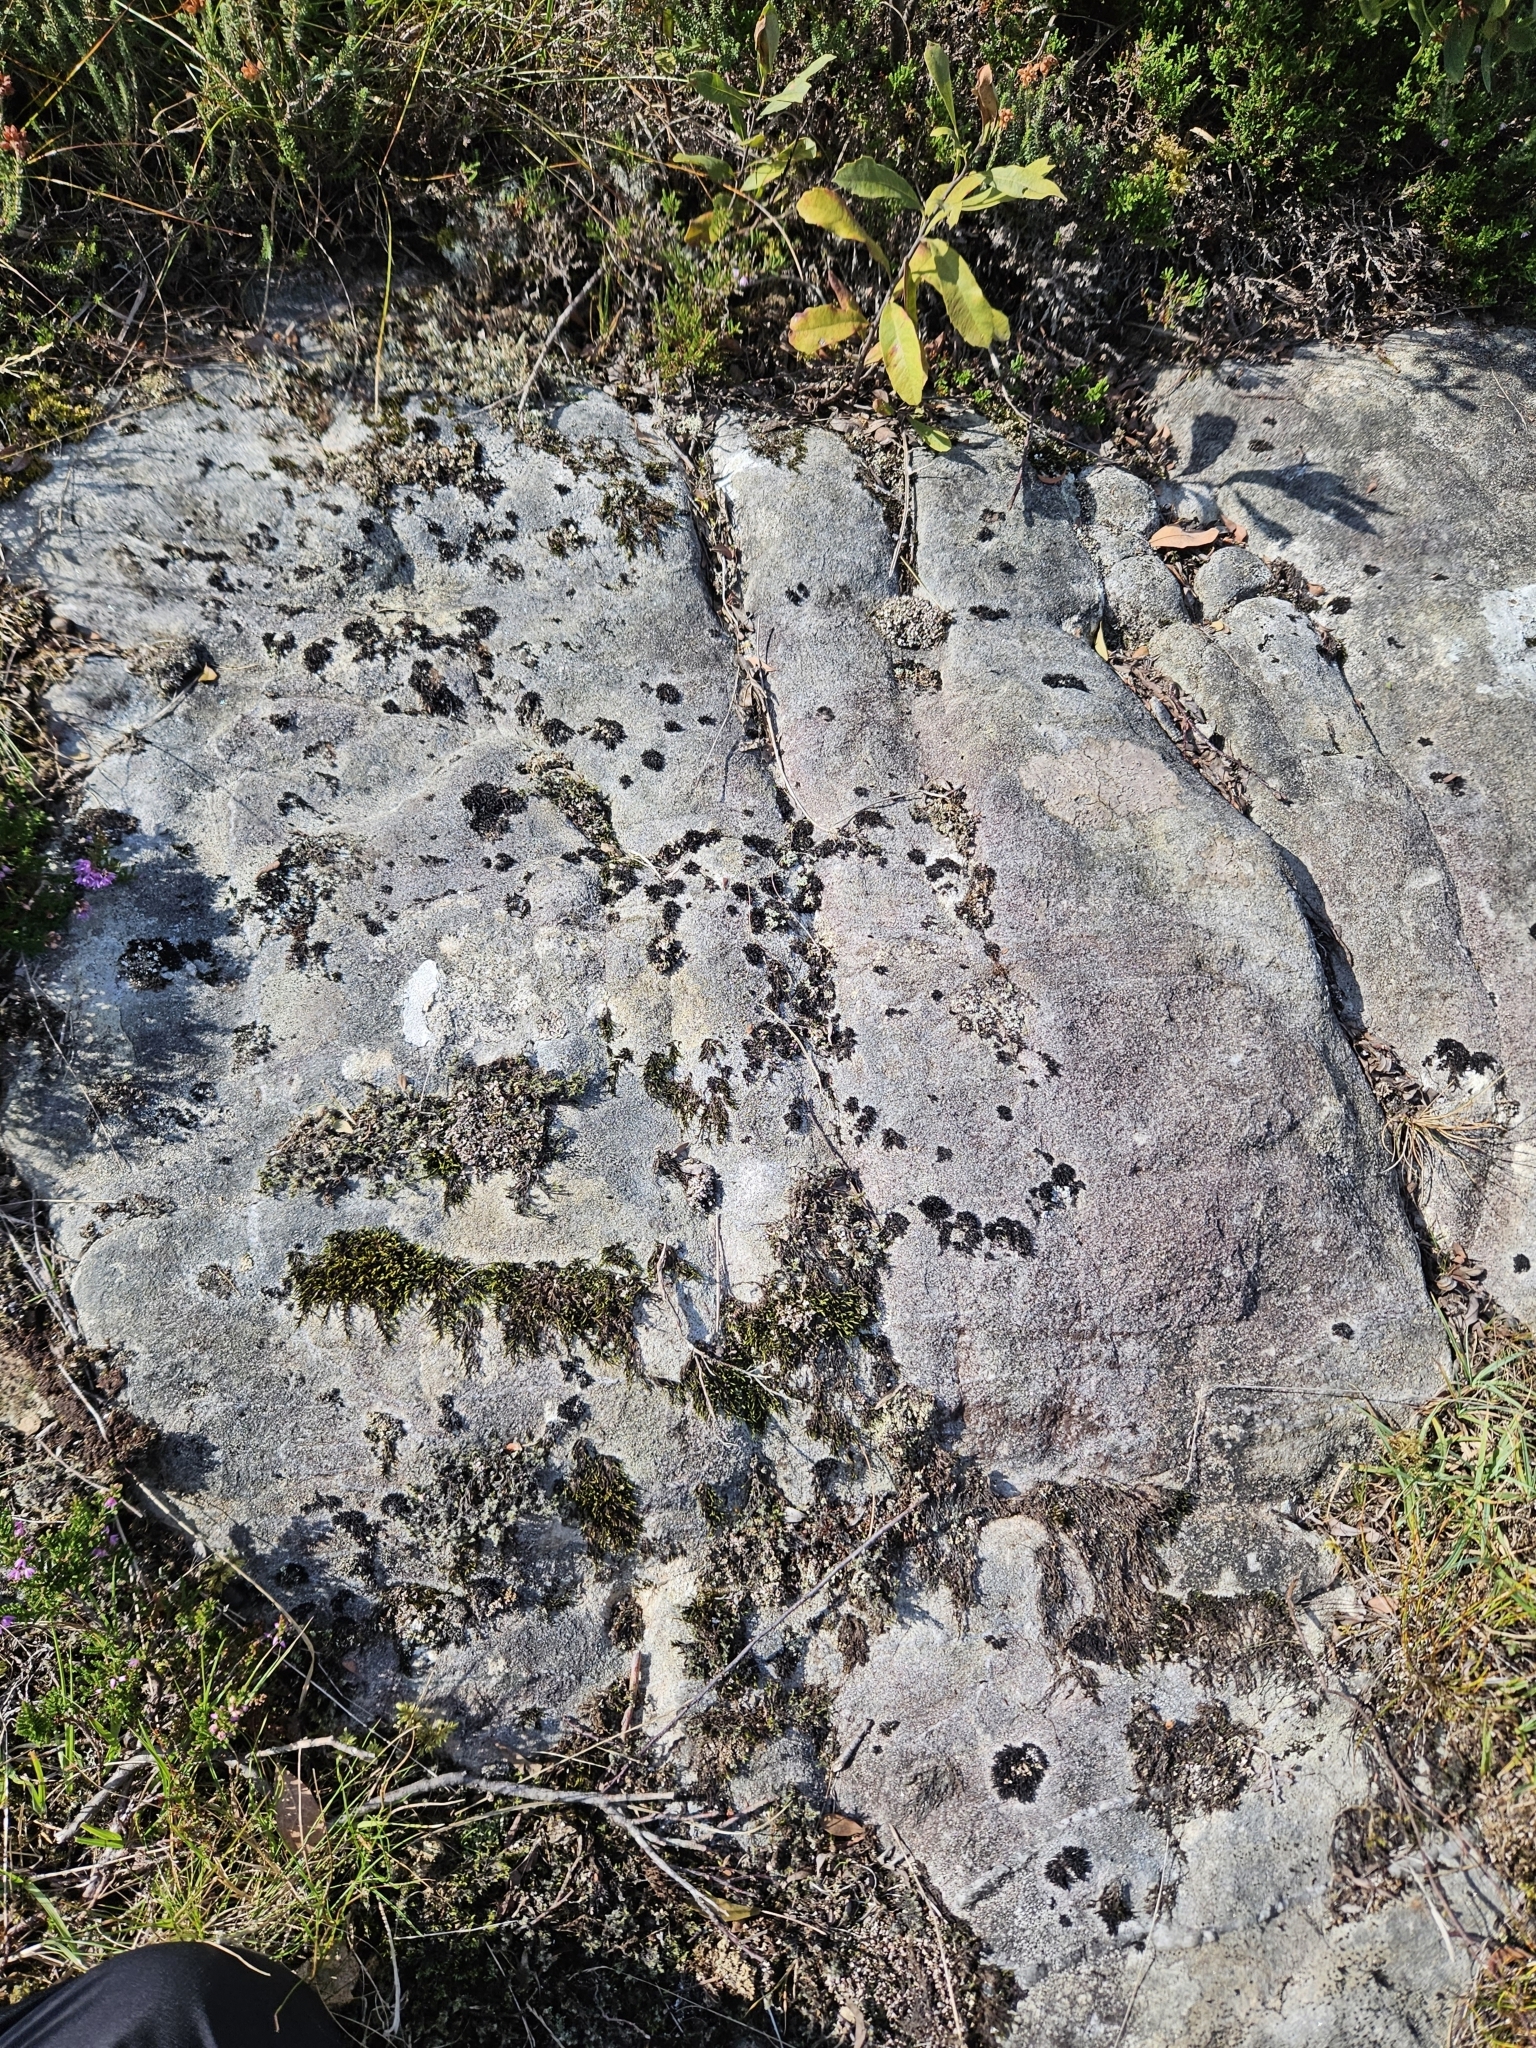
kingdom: Plantae
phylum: Bryophyta
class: Andreaeopsida
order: Andreaeales
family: Andreaeaceae
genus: Andreaea
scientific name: Andreaea rothii
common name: Dusky rock moss
